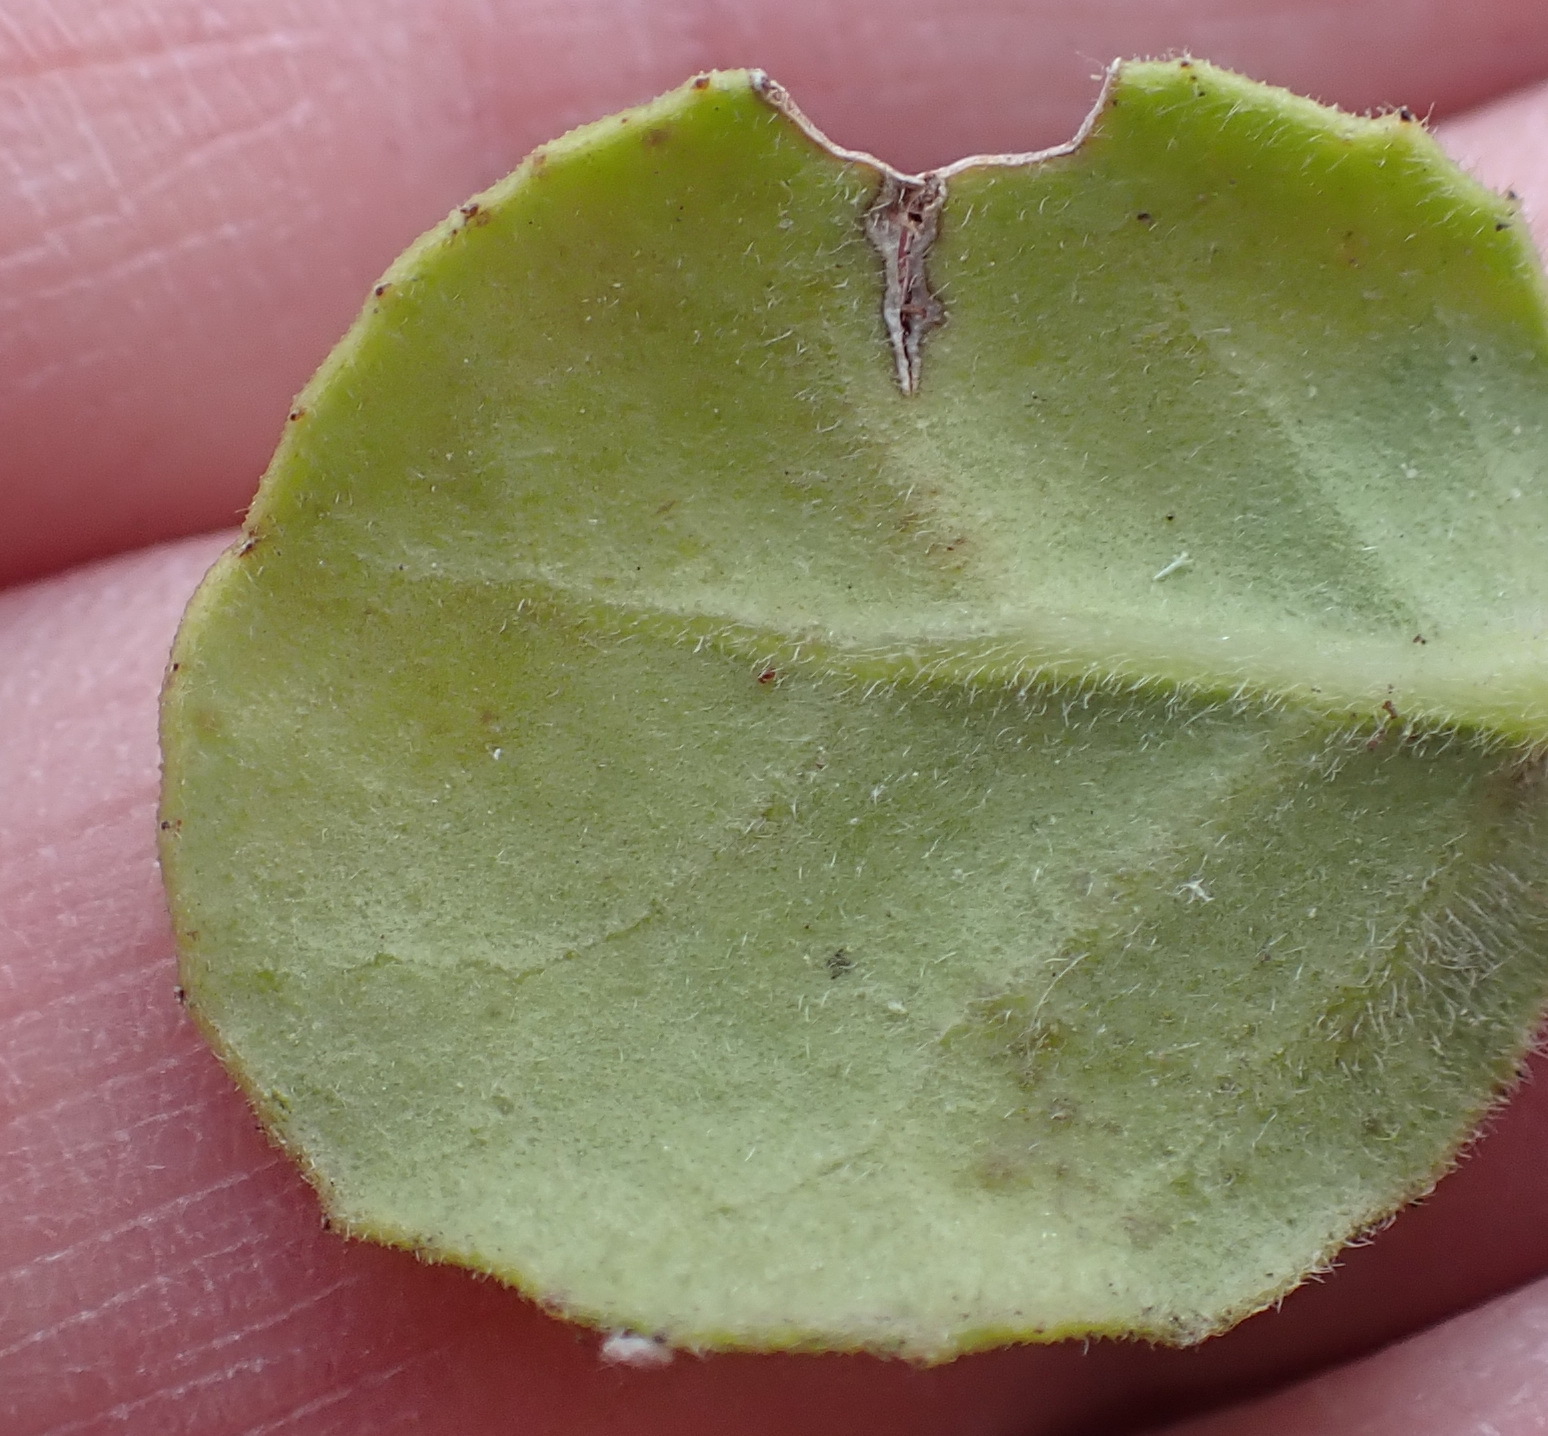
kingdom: Plantae
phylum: Tracheophyta
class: Magnoliopsida
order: Celastrales
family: Celastraceae
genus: Mystroxylon
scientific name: Mystroxylon aethiopicum
